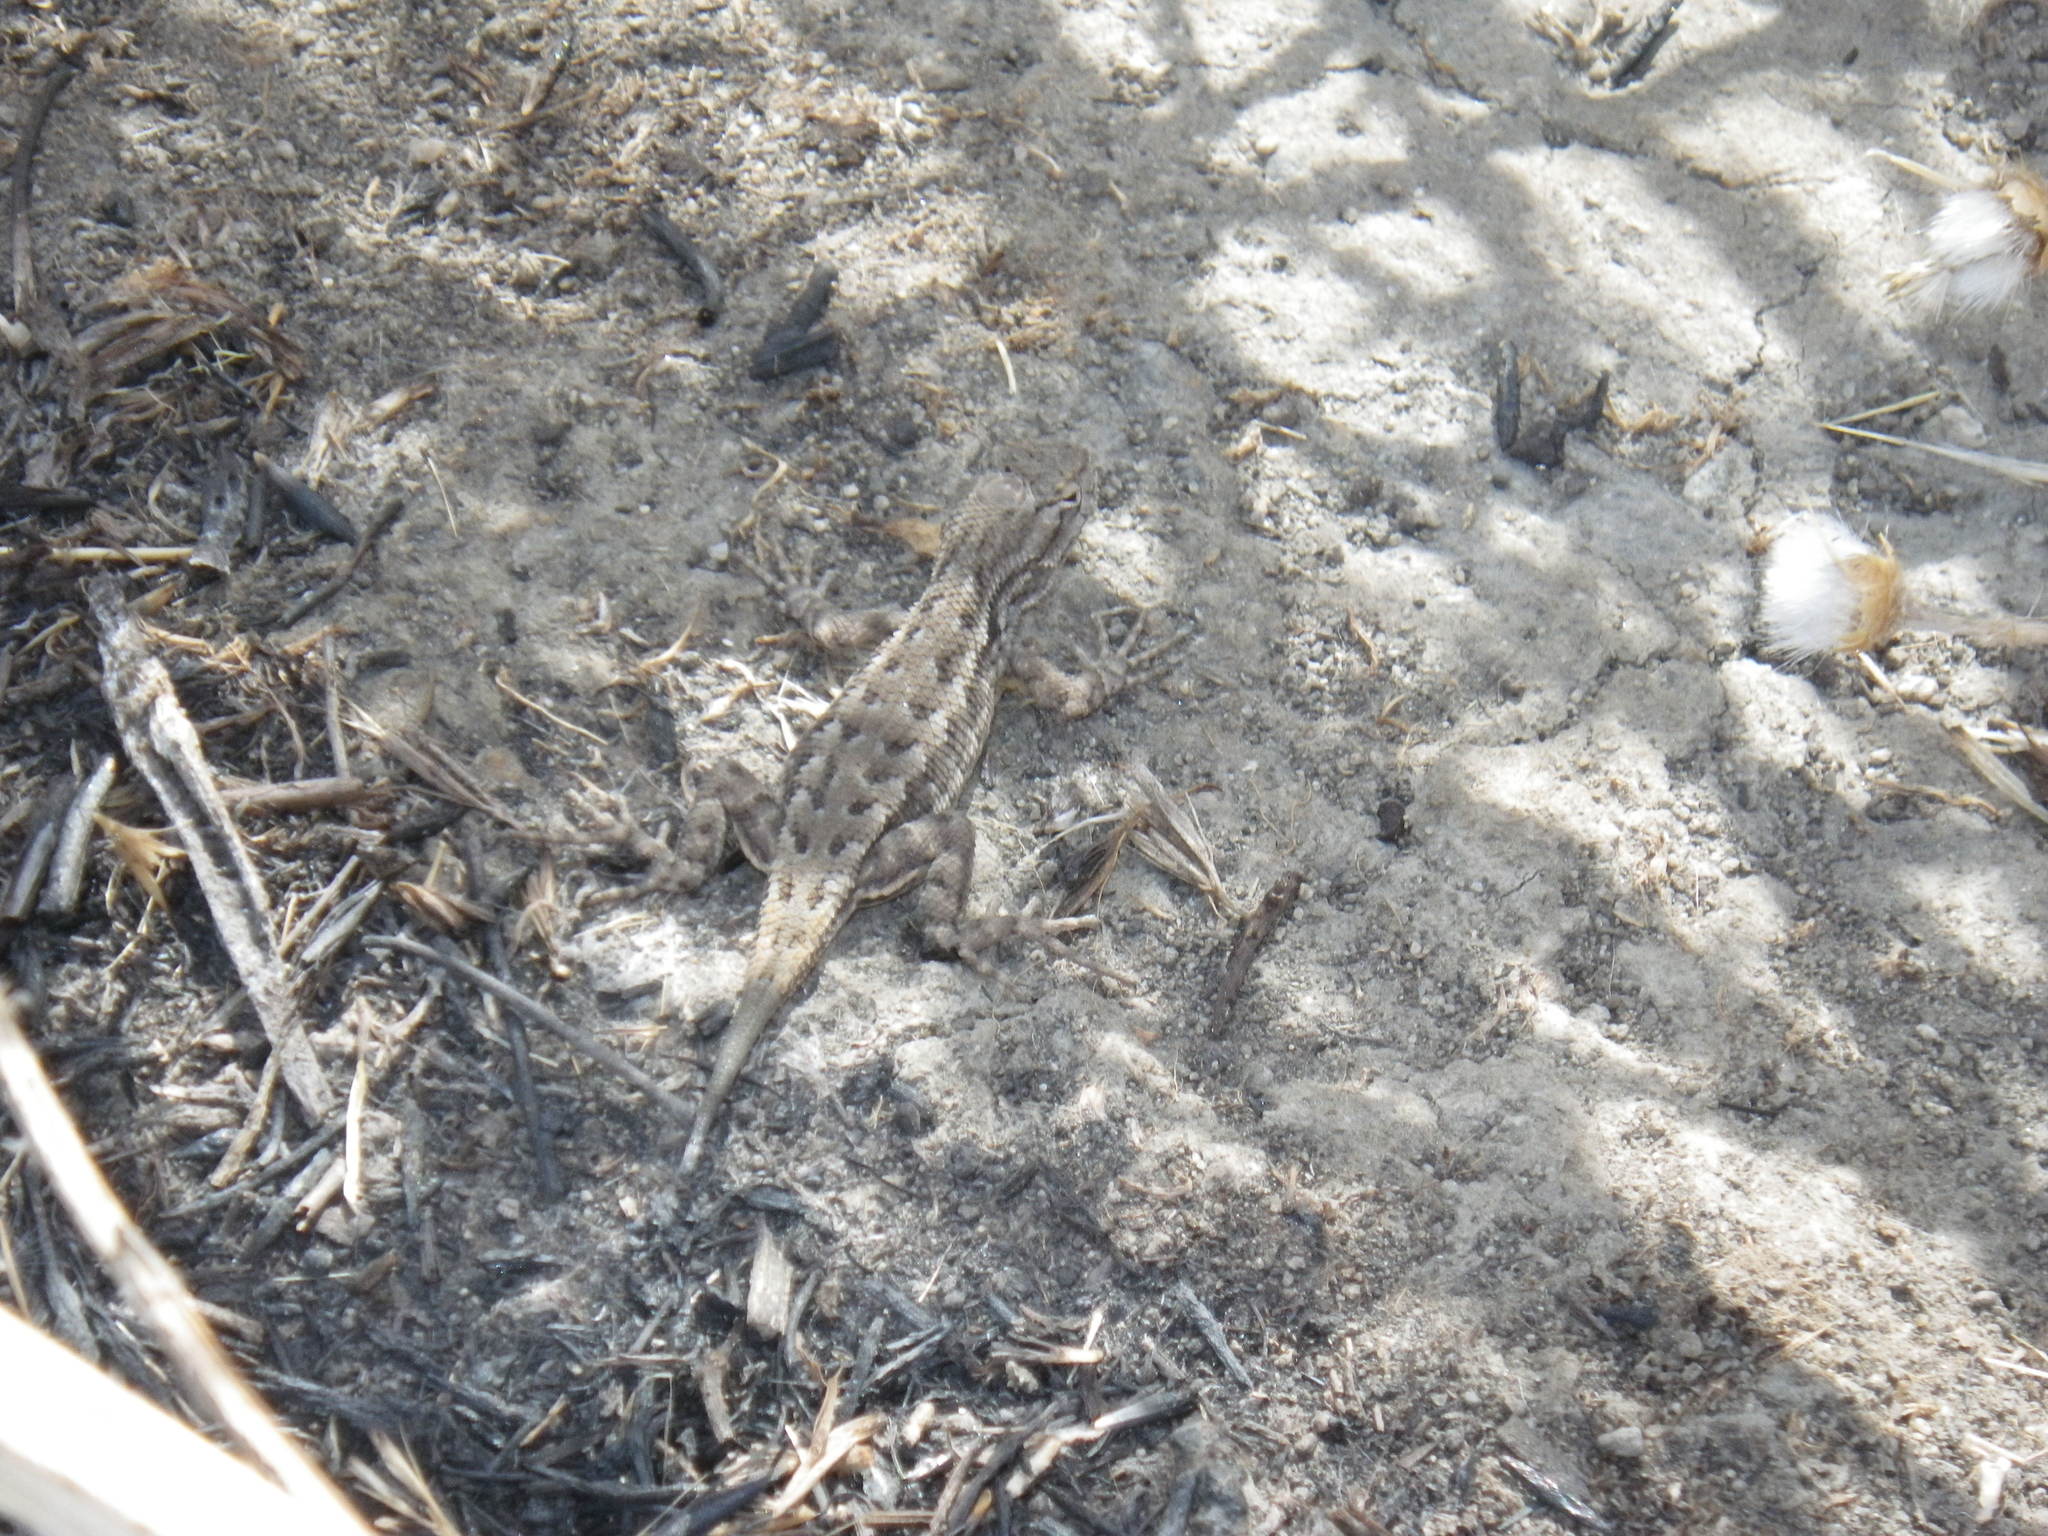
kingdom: Animalia
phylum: Chordata
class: Squamata
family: Phrynosomatidae
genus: Sceloporus
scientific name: Sceloporus occidentalis
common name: Western fence lizard
